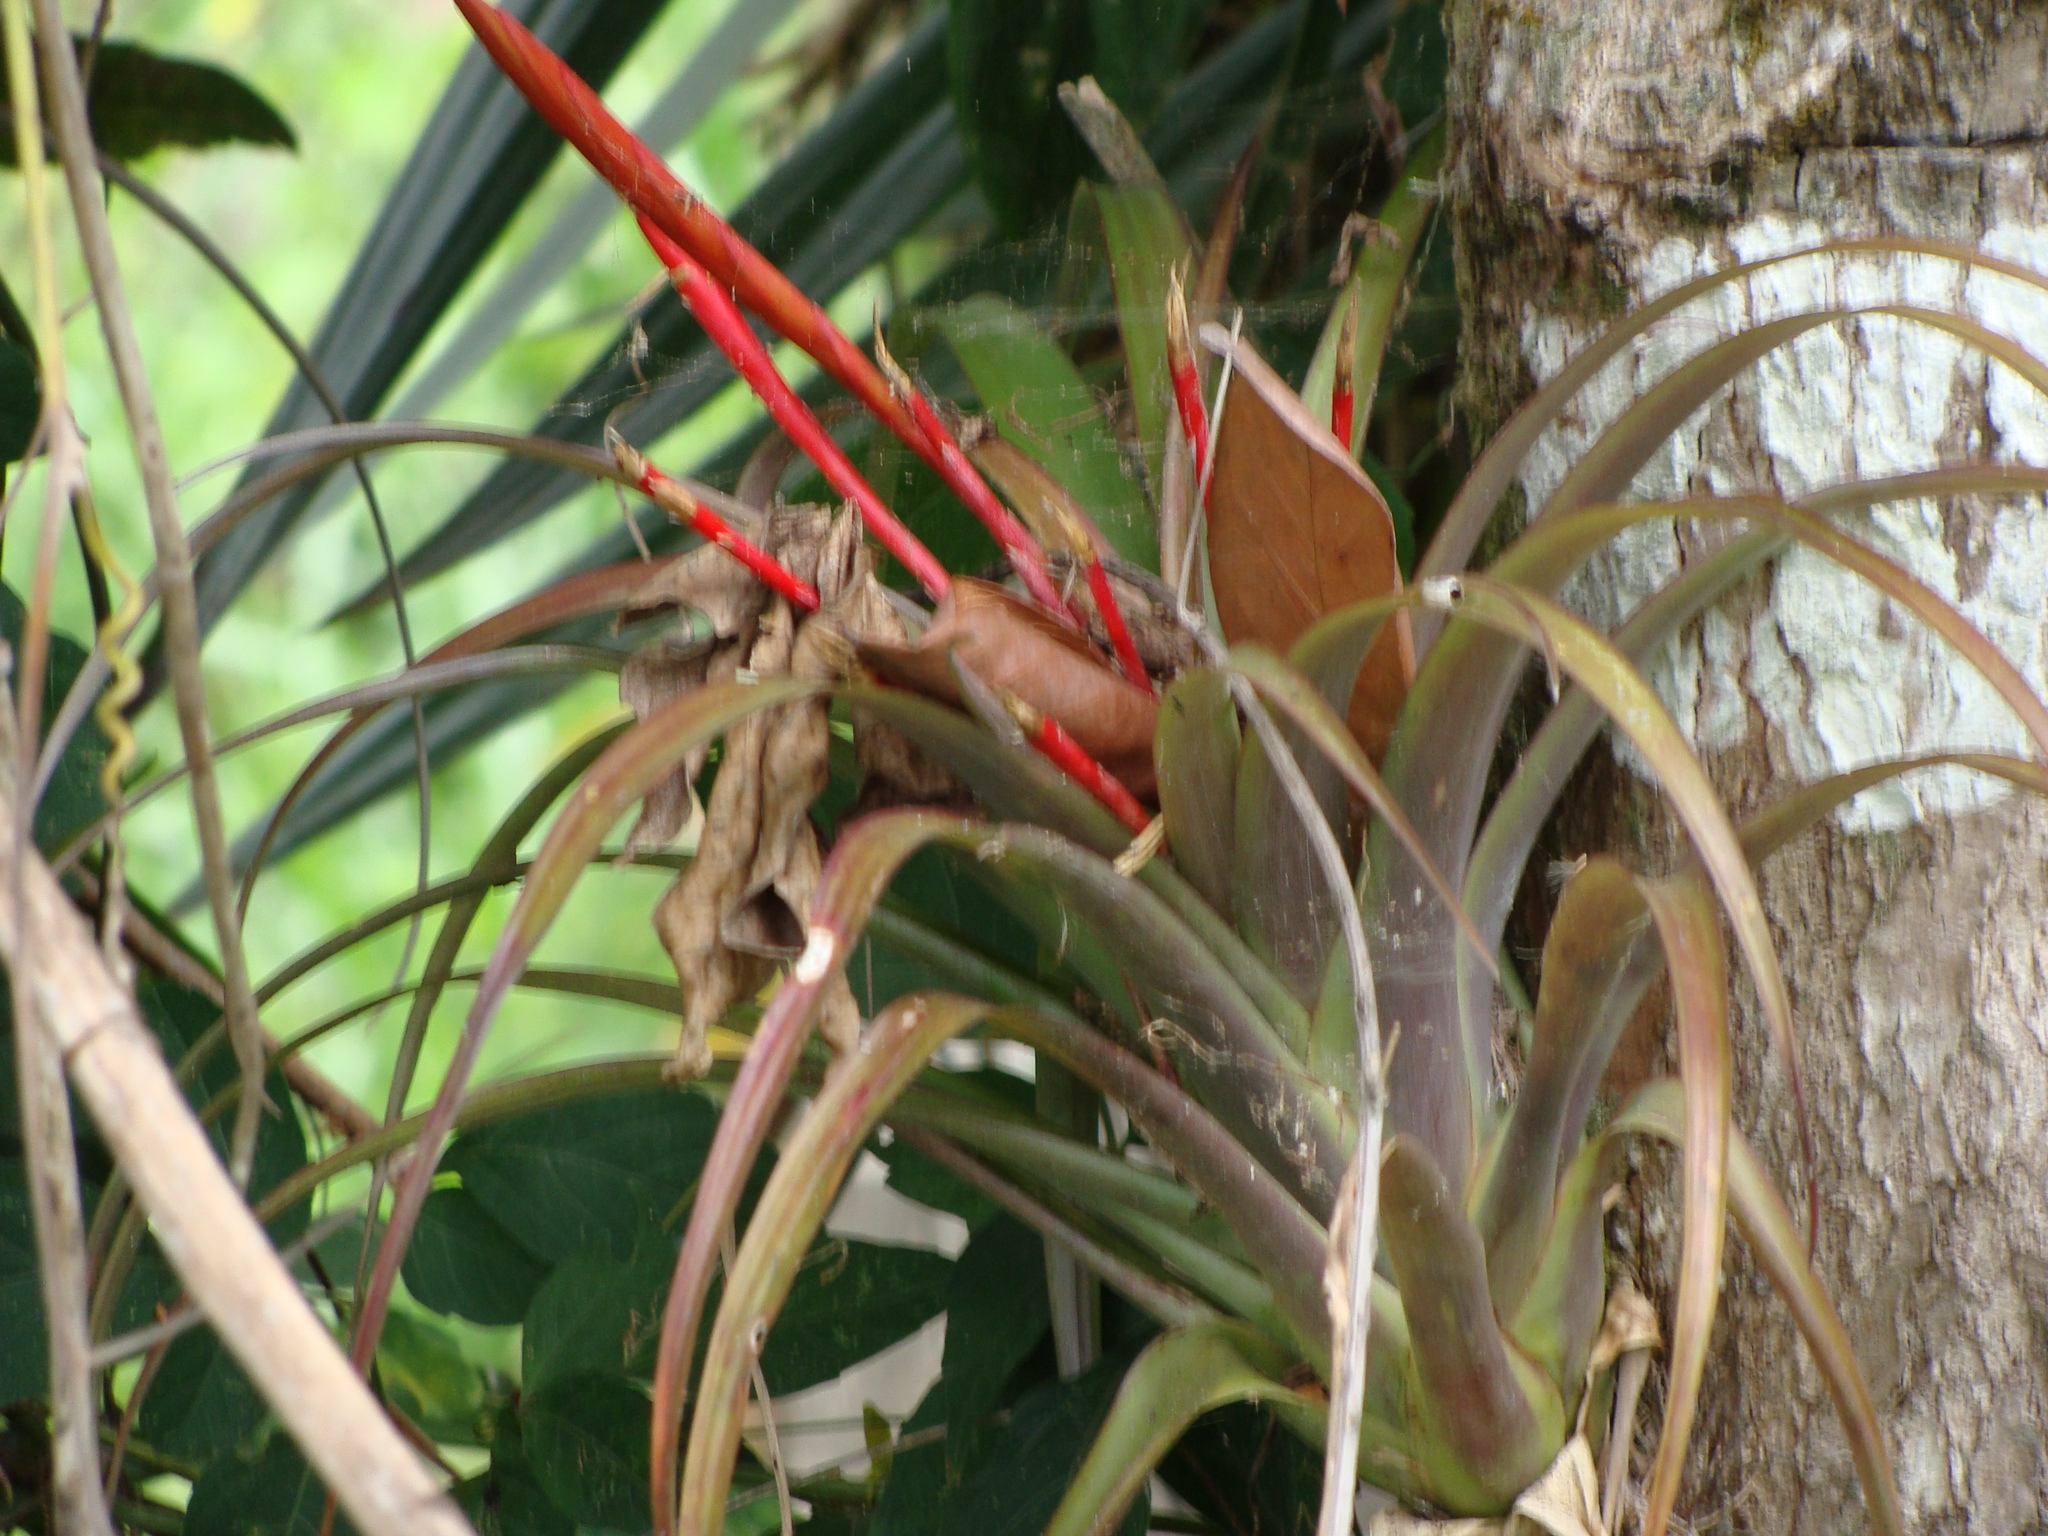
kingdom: Plantae
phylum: Tracheophyta
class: Liliopsida
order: Poales
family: Bromeliaceae
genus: Tillandsia
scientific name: Tillandsia flabellata
